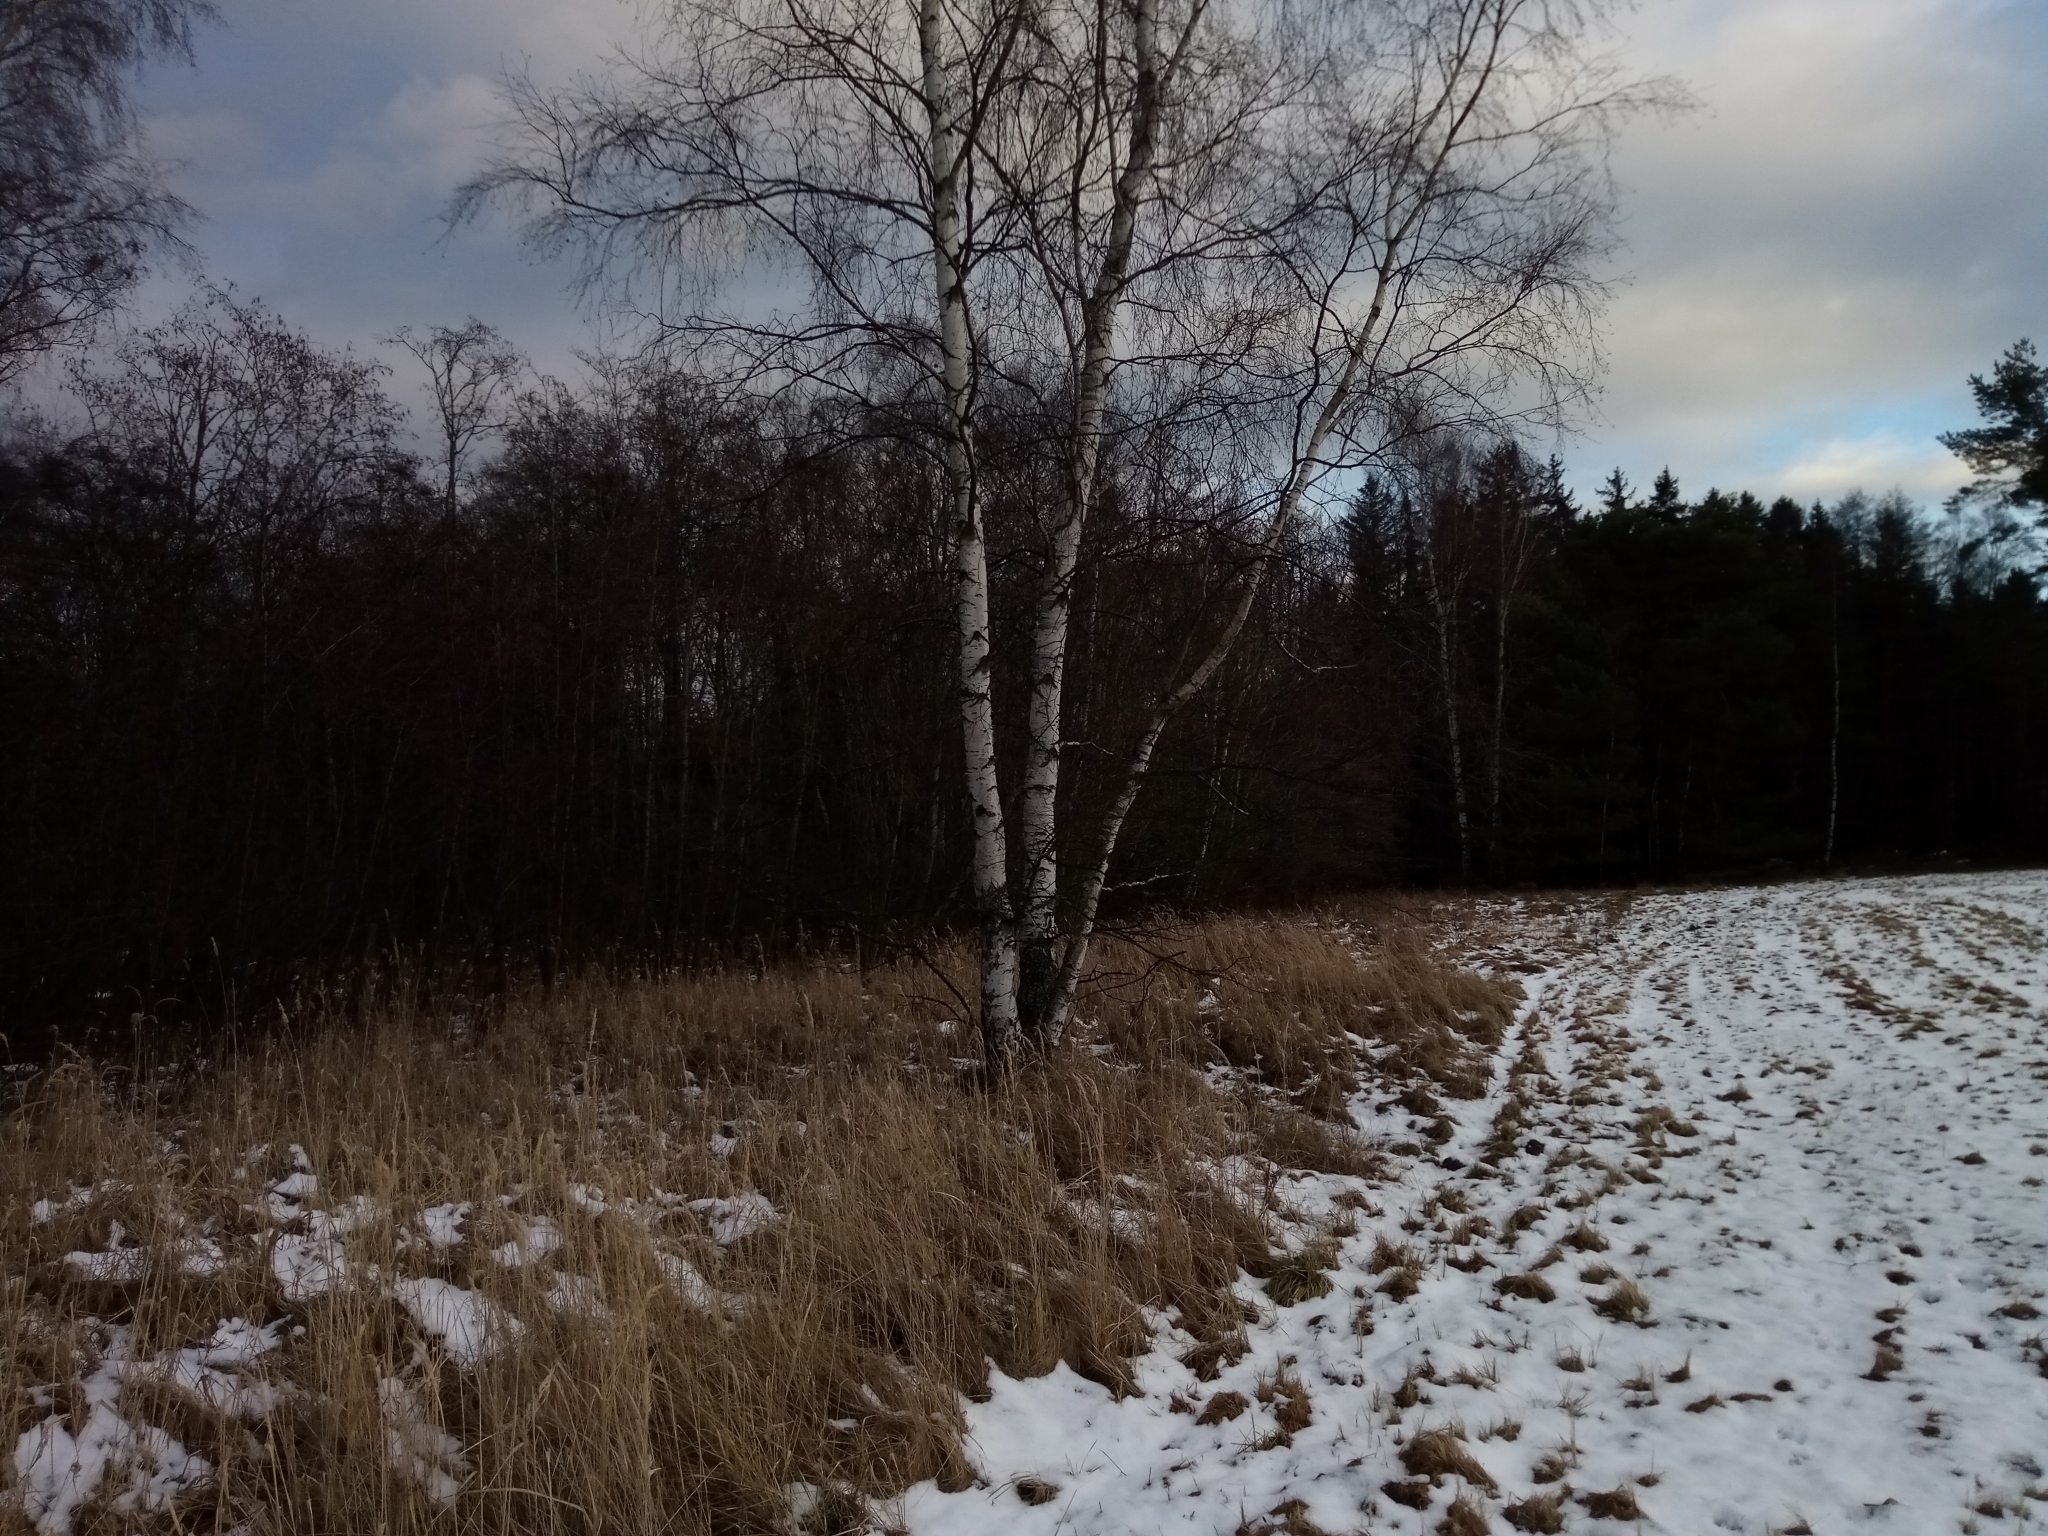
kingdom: Plantae
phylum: Tracheophyta
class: Magnoliopsida
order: Fagales
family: Betulaceae
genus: Betula
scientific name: Betula pendula
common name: Silver birch
